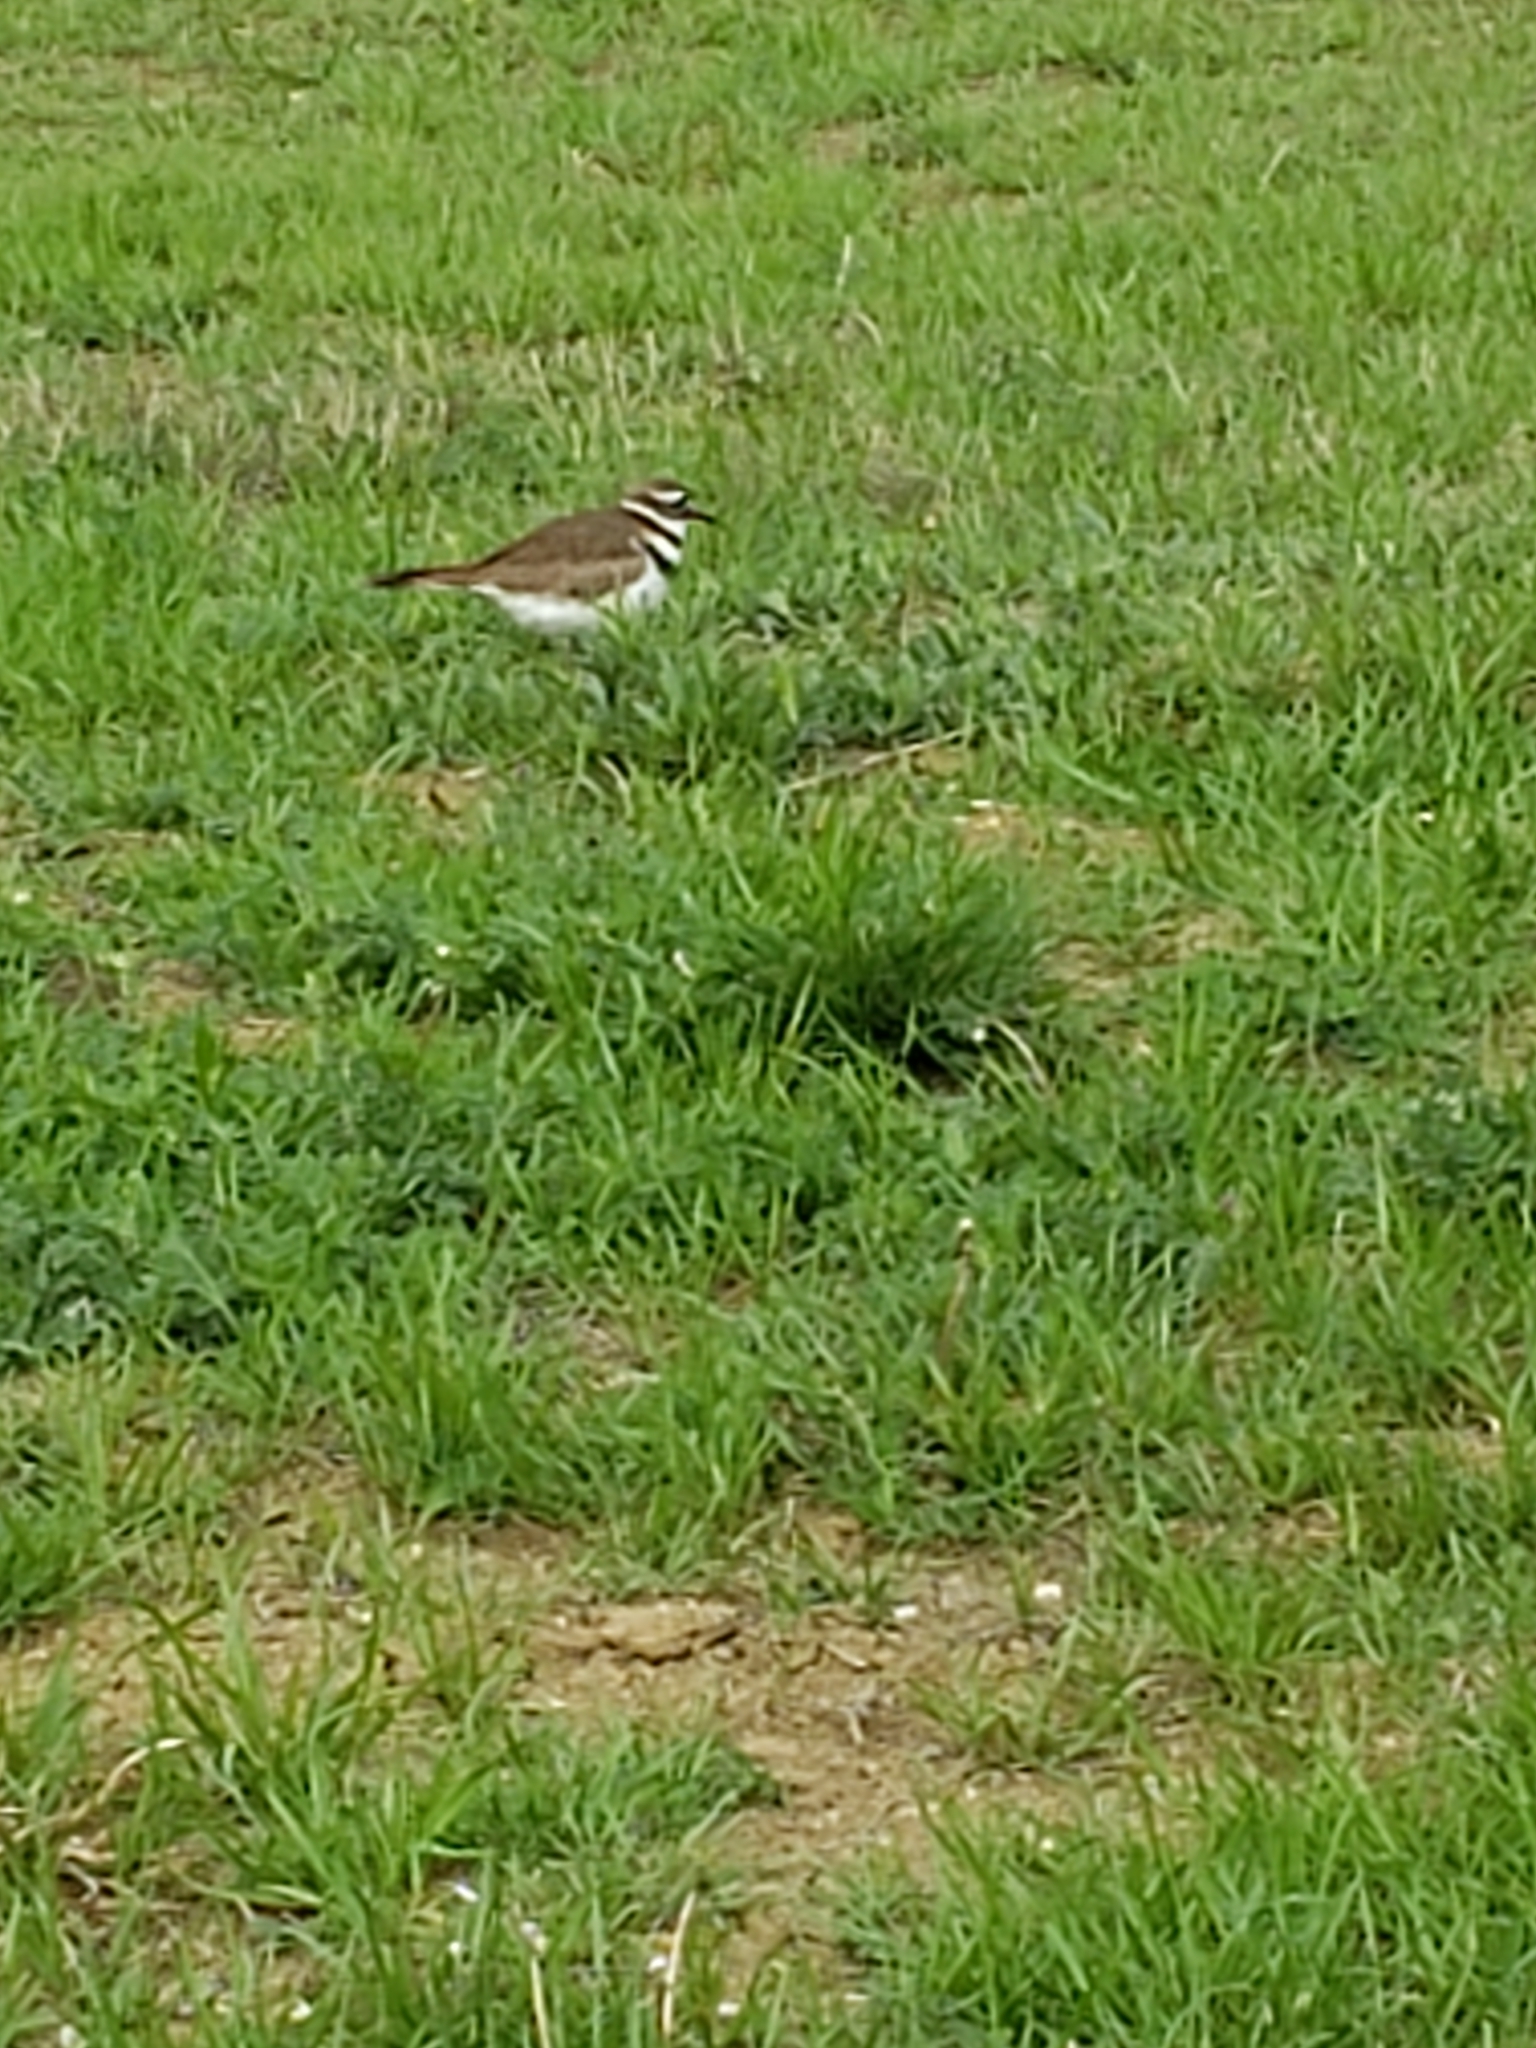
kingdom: Animalia
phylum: Chordata
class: Aves
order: Charadriiformes
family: Charadriidae
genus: Charadrius
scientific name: Charadrius vociferus
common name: Killdeer
